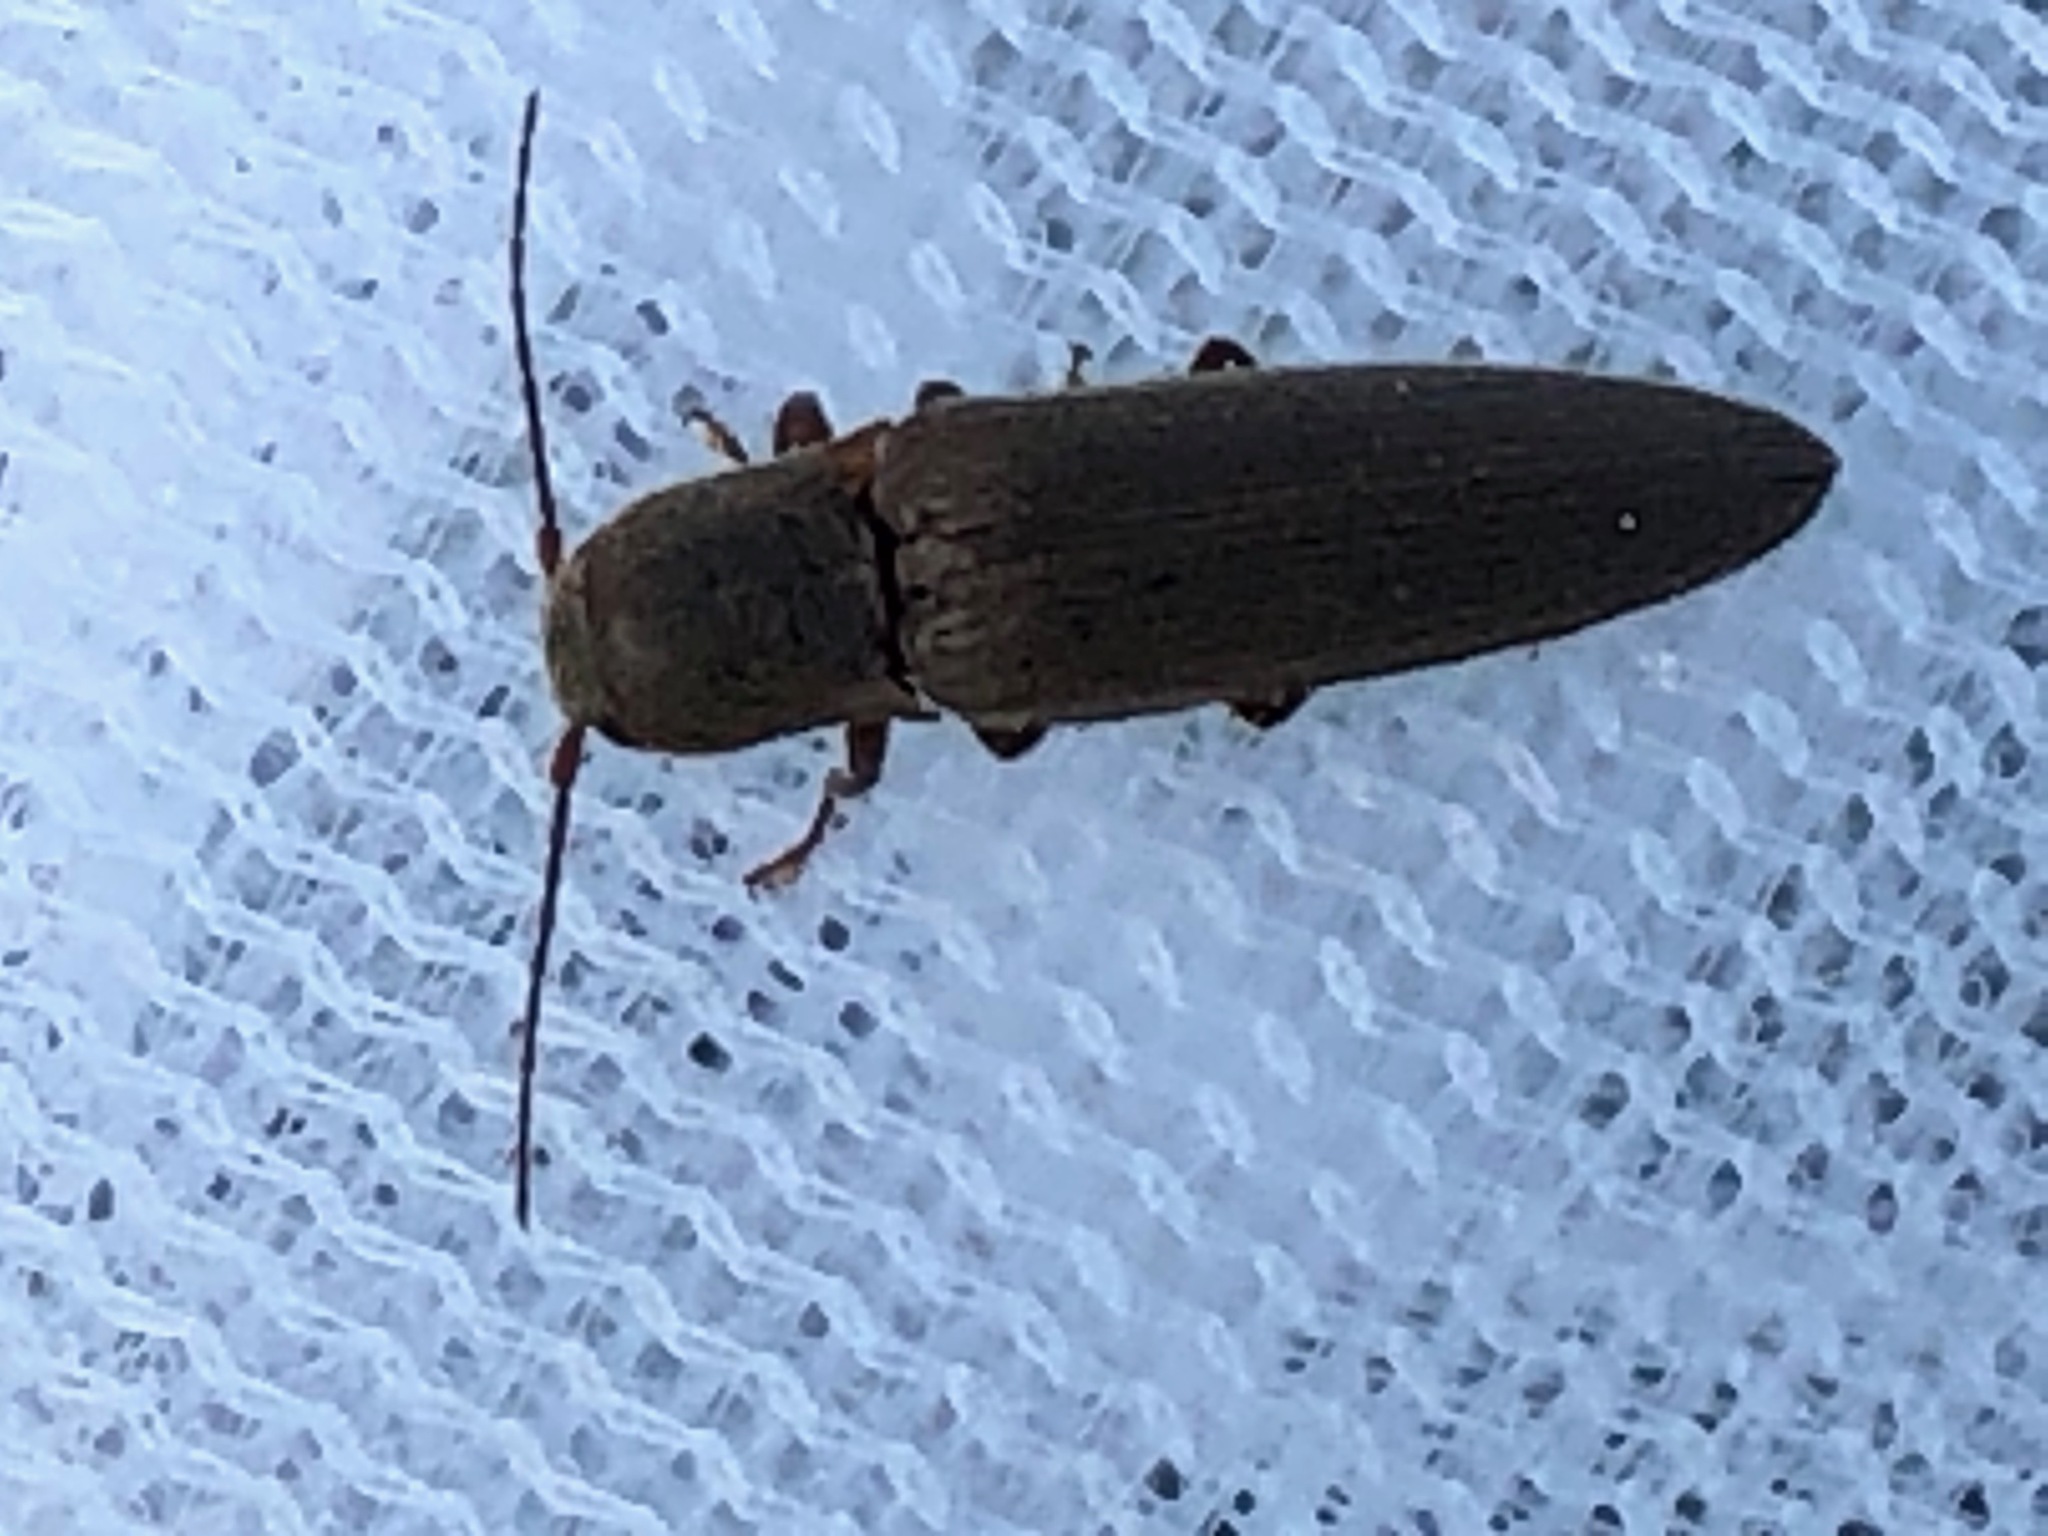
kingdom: Animalia
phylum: Arthropoda
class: Insecta
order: Coleoptera
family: Elateridae
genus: Synaptus
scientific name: Synaptus filiformis
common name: Hairy click beetle
